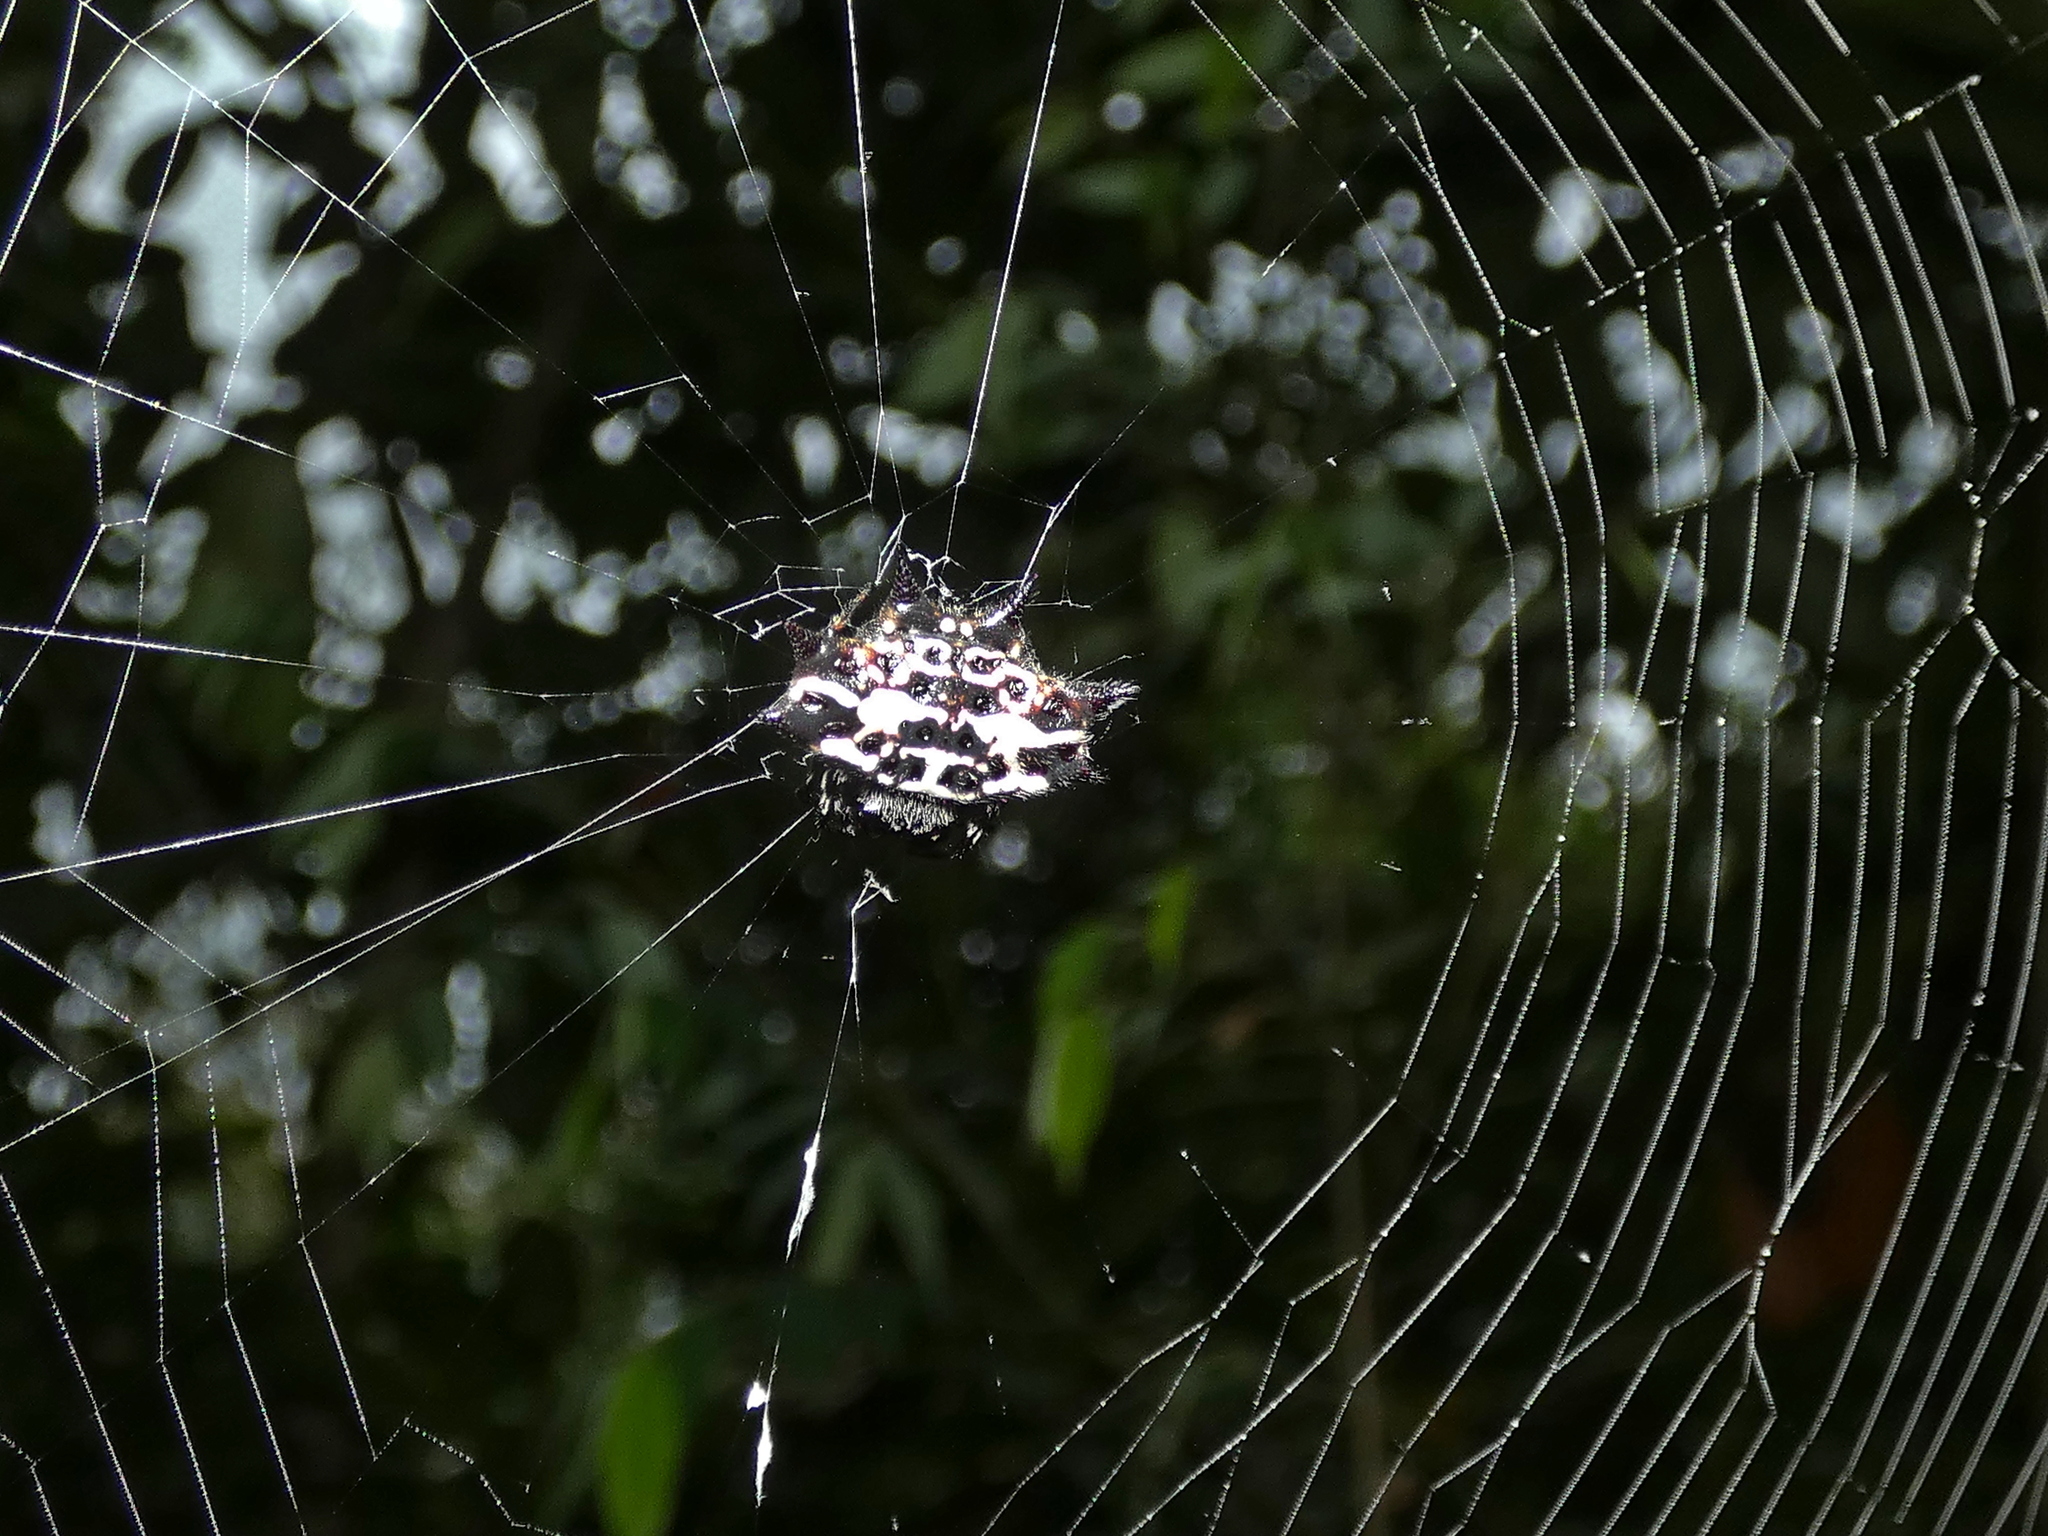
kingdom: Animalia
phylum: Arthropoda
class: Arachnida
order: Araneae
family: Araneidae
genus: Gasteracantha
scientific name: Gasteracantha cancriformis
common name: Orb weavers
